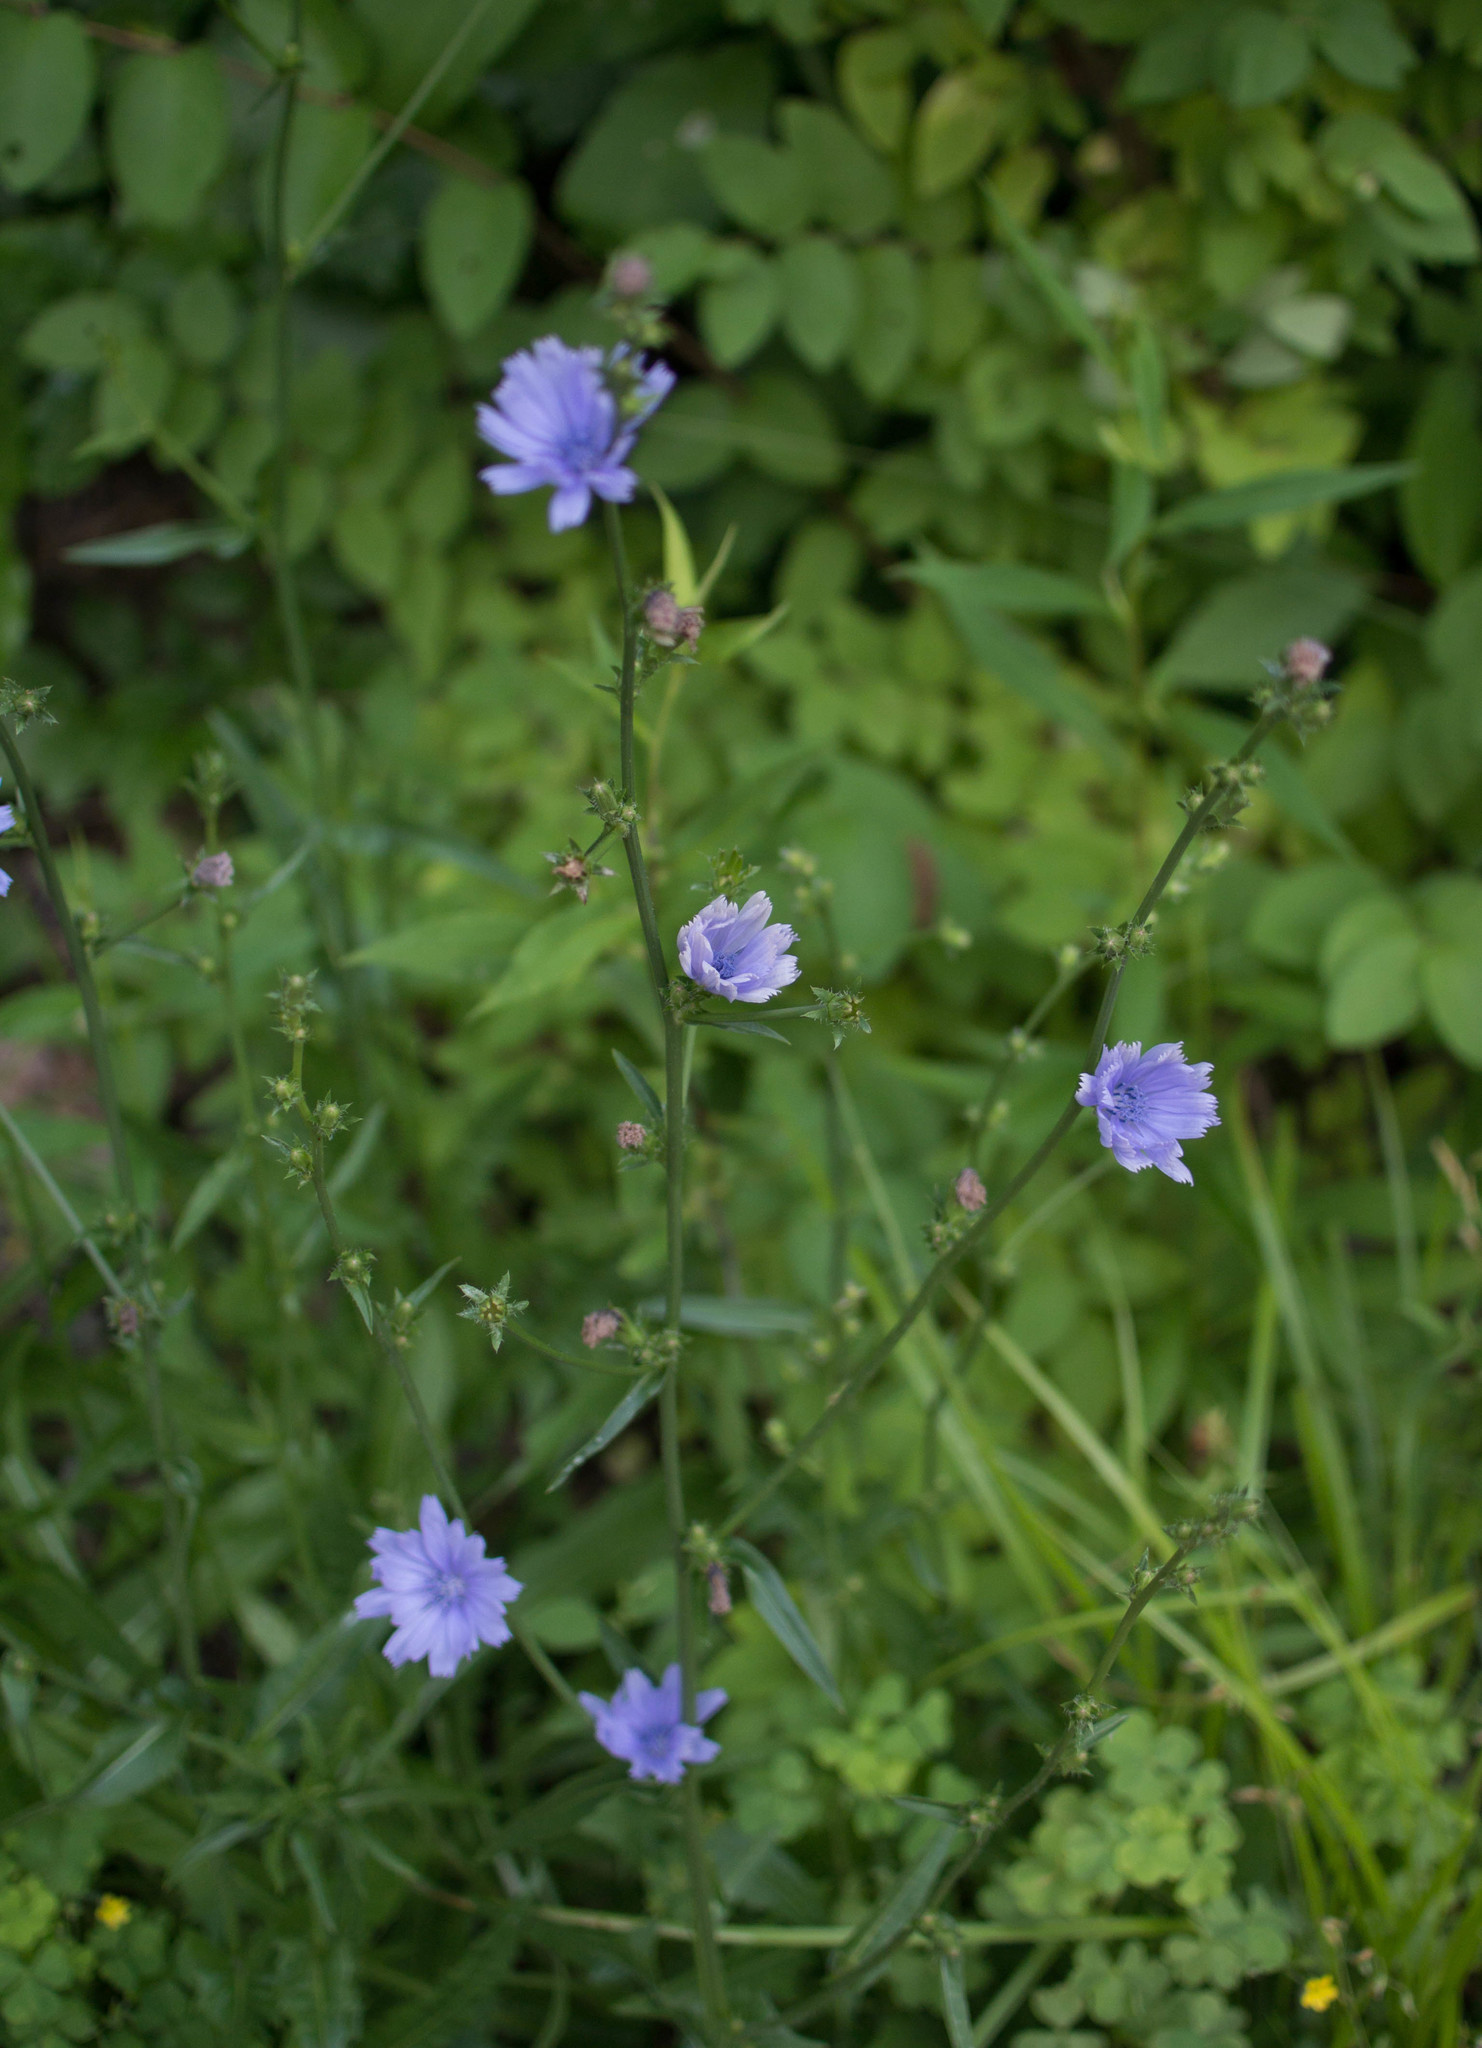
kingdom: Plantae
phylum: Tracheophyta
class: Magnoliopsida
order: Asterales
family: Asteraceae
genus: Cichorium
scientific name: Cichorium intybus
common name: Chicory
